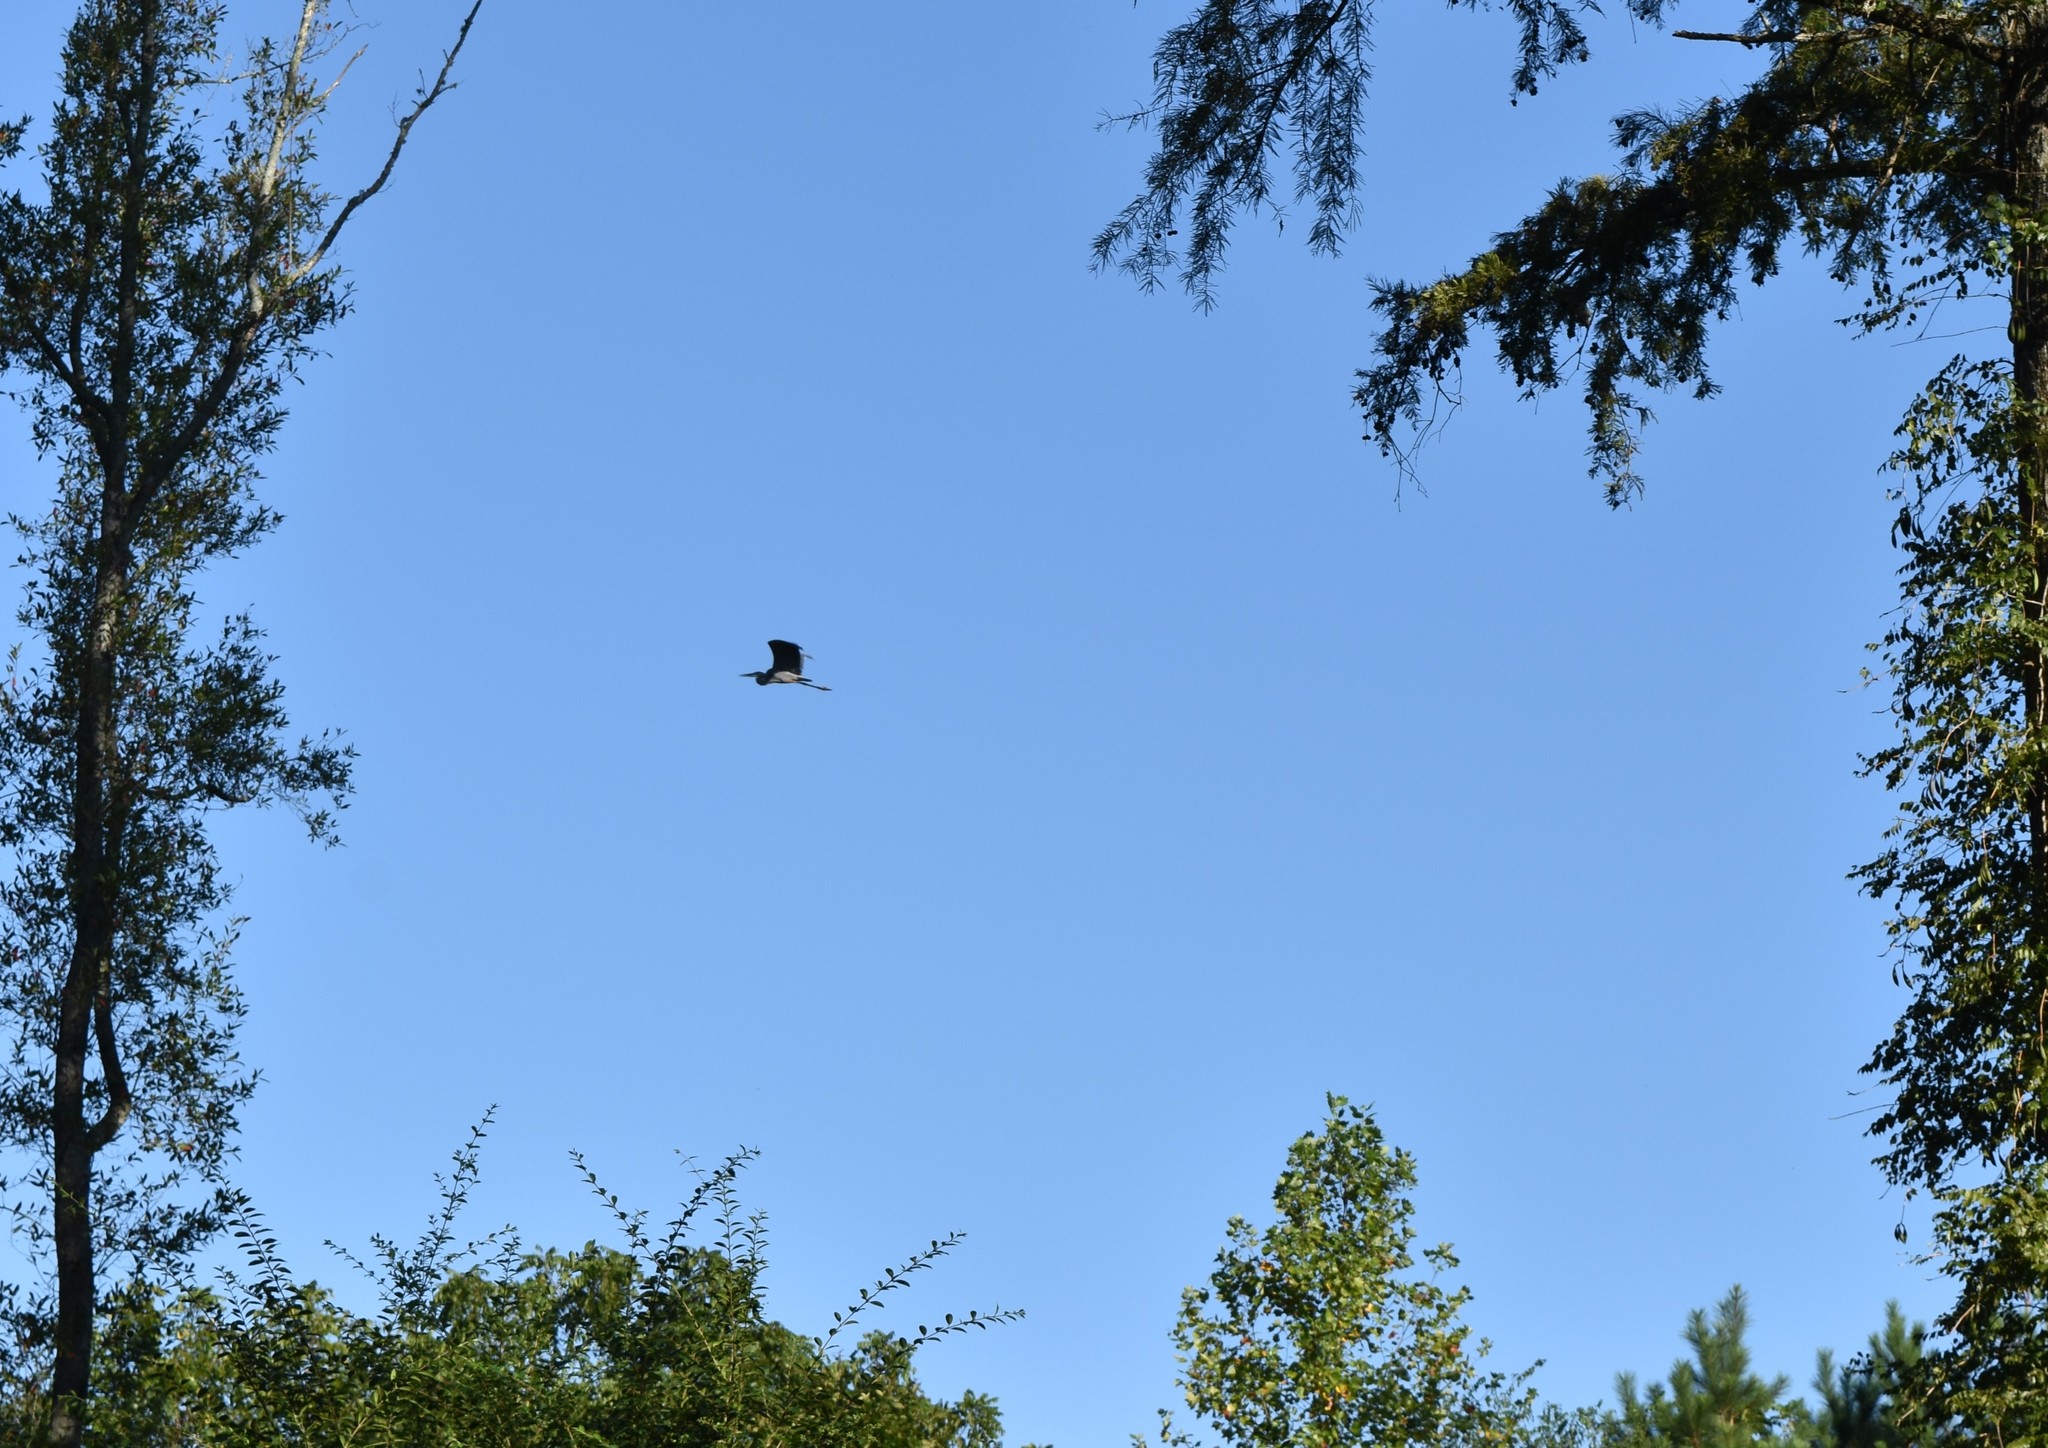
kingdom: Animalia
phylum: Chordata
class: Aves
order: Pelecaniformes
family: Ardeidae
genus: Ardea
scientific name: Ardea herodias
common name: Great blue heron
